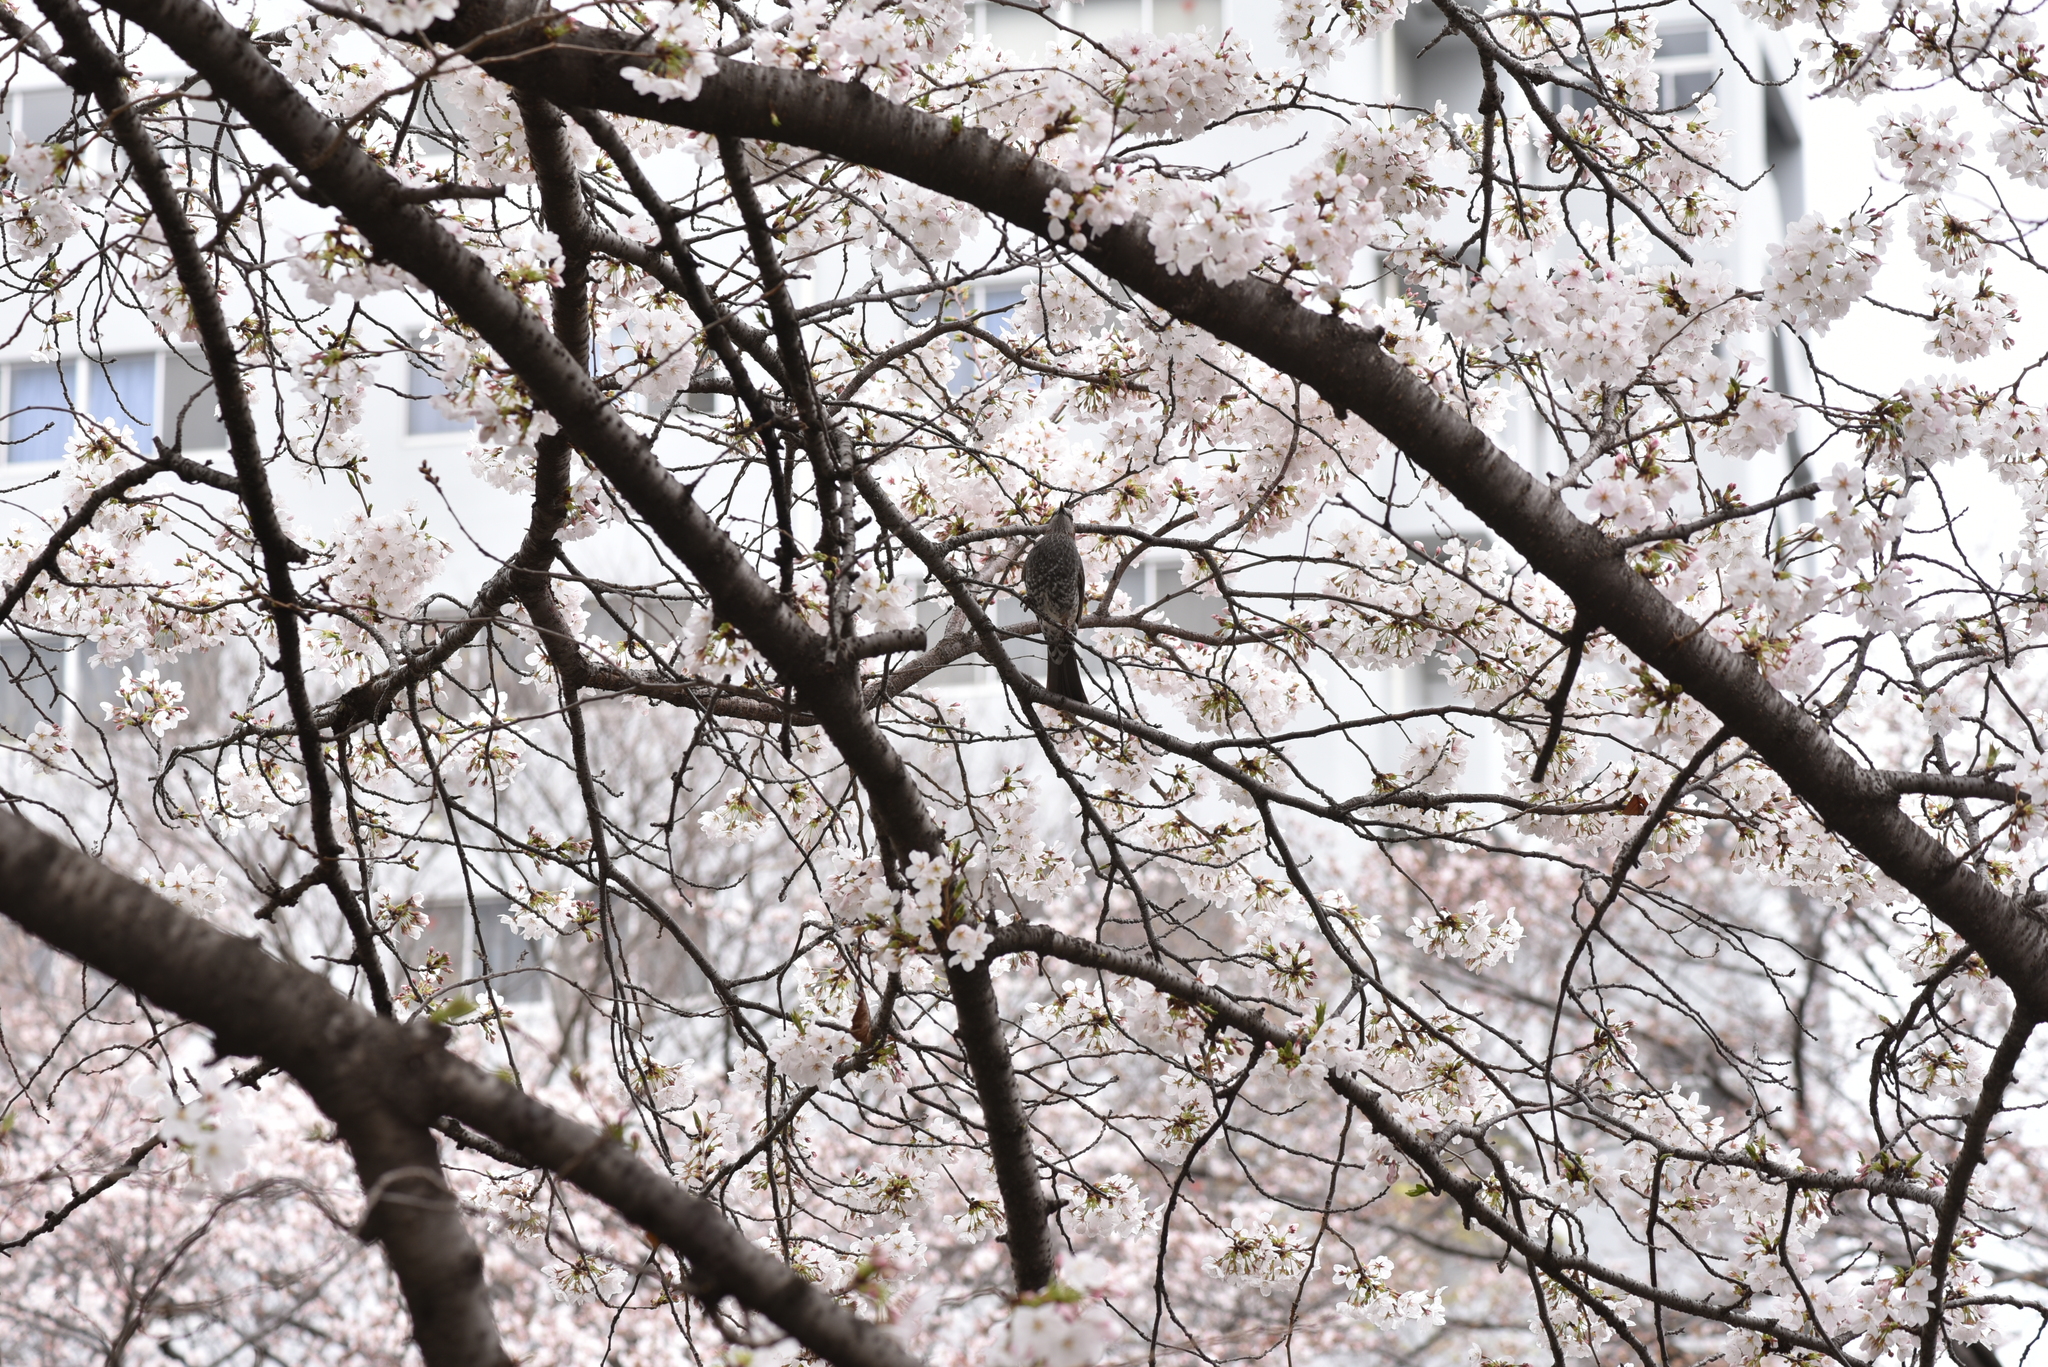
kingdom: Animalia
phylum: Chordata
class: Aves
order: Passeriformes
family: Pycnonotidae
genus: Hypsipetes
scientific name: Hypsipetes amaurotis
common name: Brown-eared bulbul
